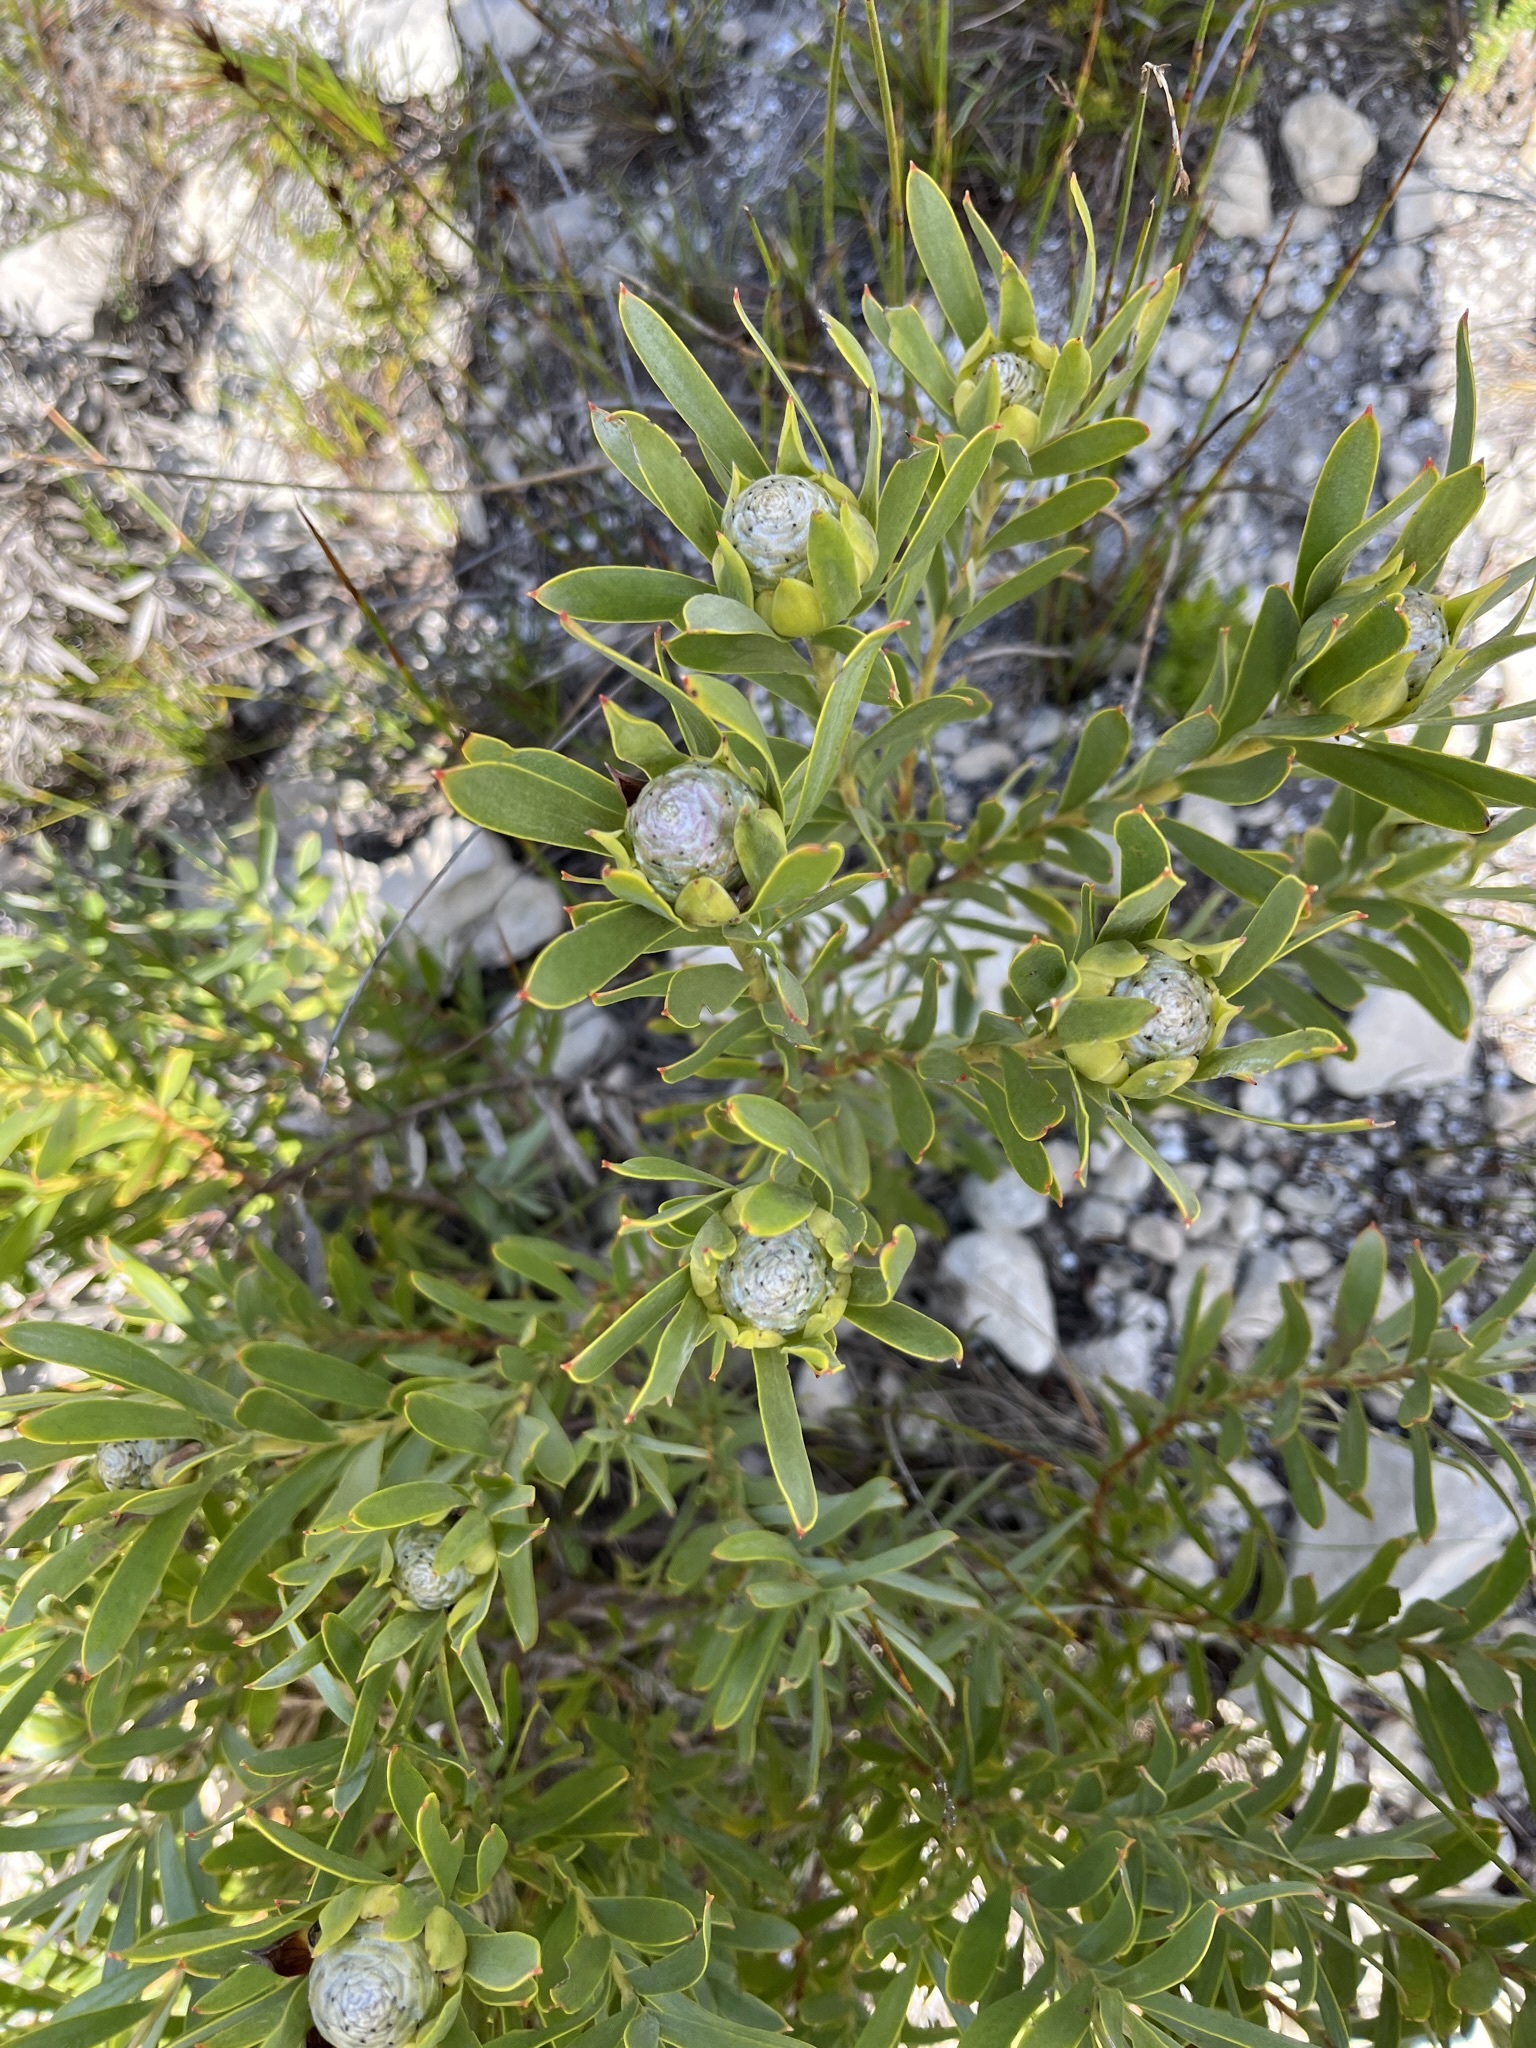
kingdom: Plantae
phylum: Tracheophyta
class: Magnoliopsida
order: Proteales
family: Proteaceae
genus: Leucadendron
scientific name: Leucadendron meridianum
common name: Limestone conebush
